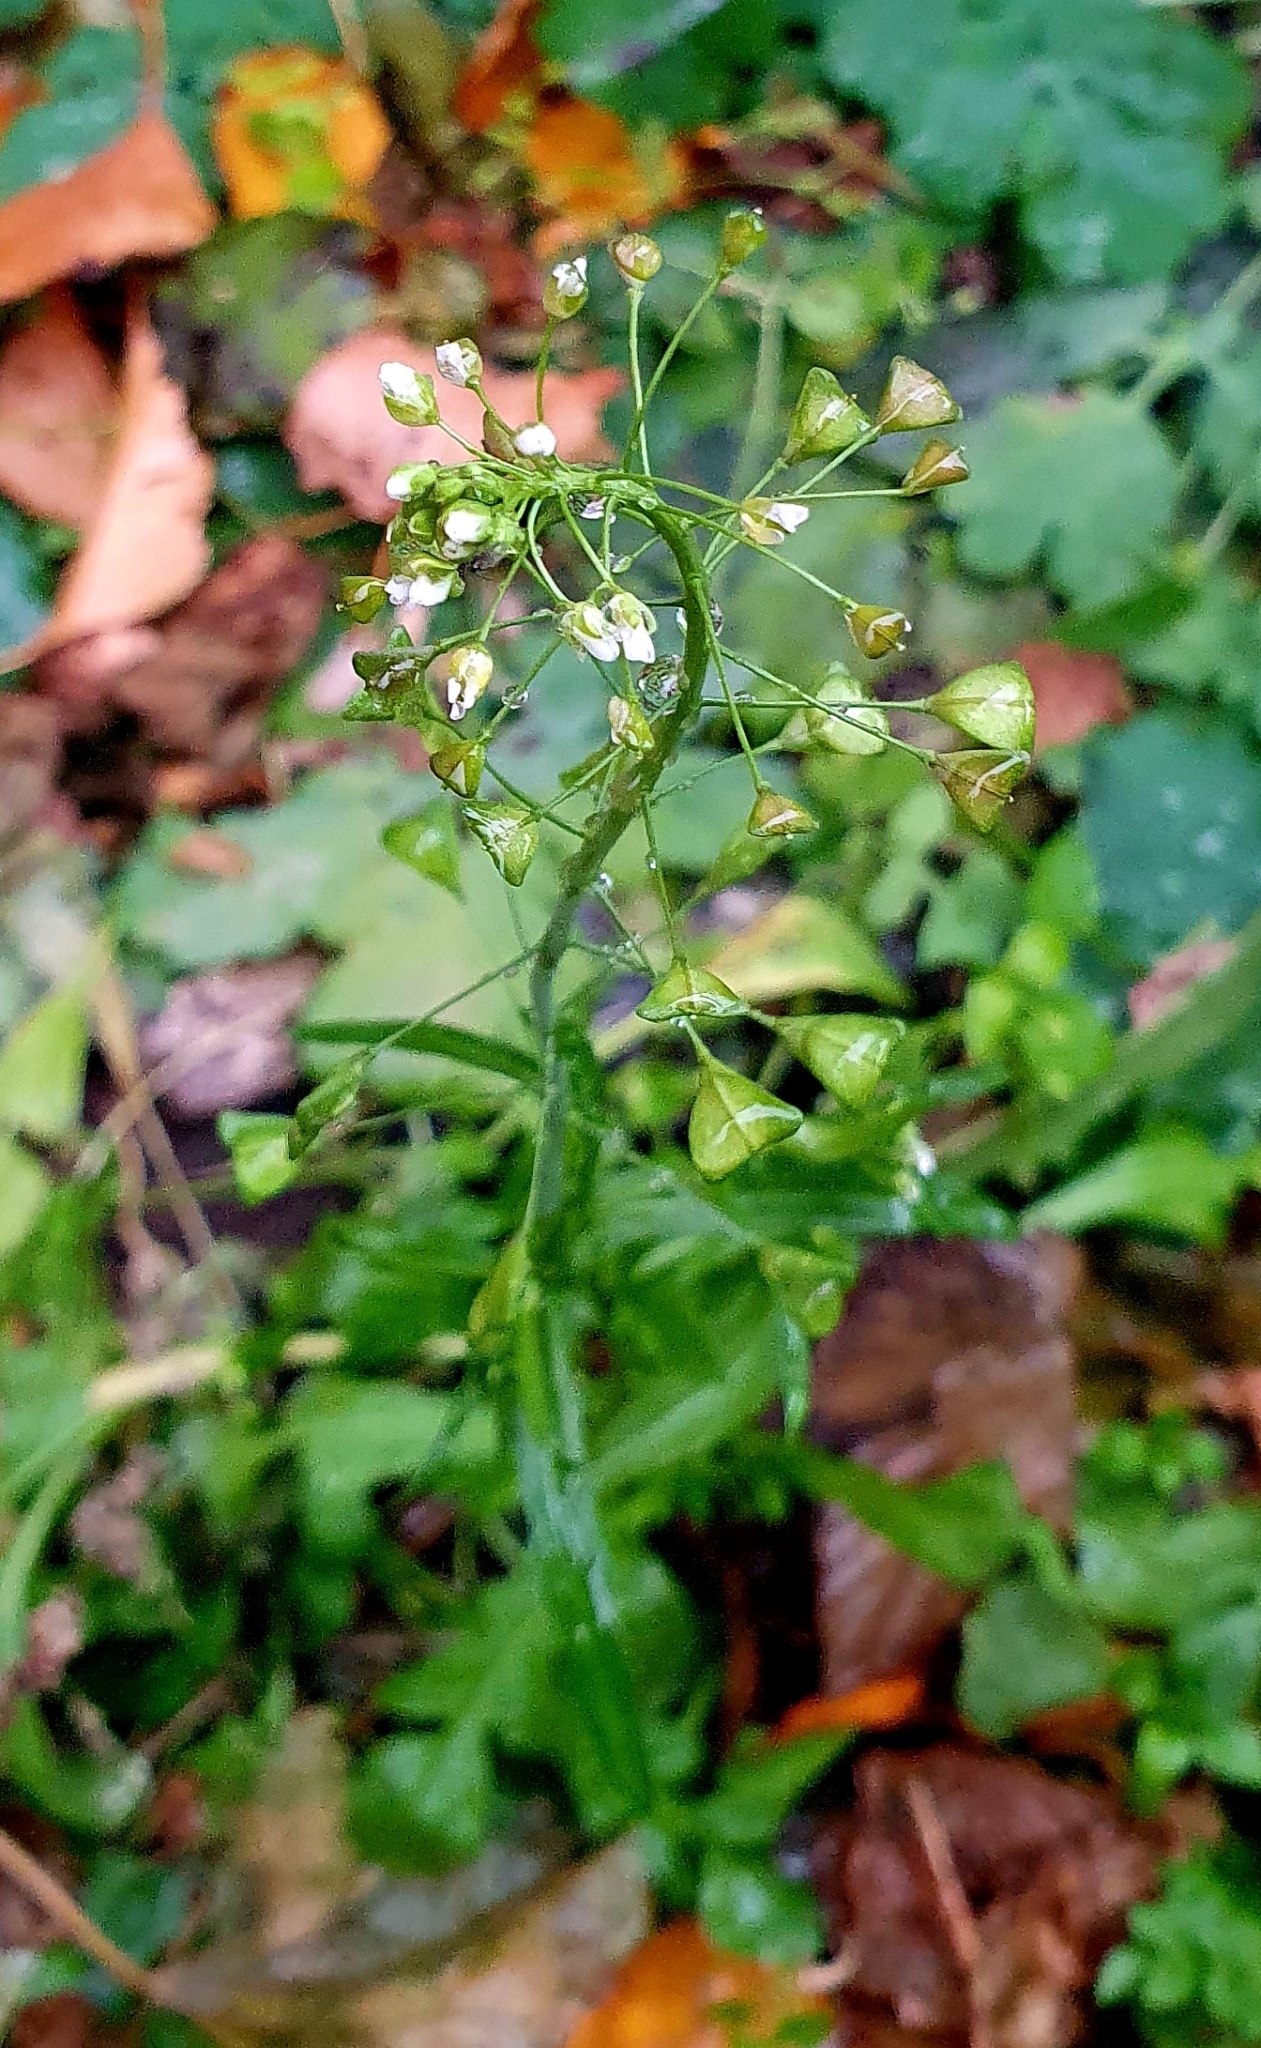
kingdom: Plantae
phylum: Tracheophyta
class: Magnoliopsida
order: Brassicales
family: Brassicaceae
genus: Capsella
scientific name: Capsella bursa-pastoris
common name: Shepherd's purse
